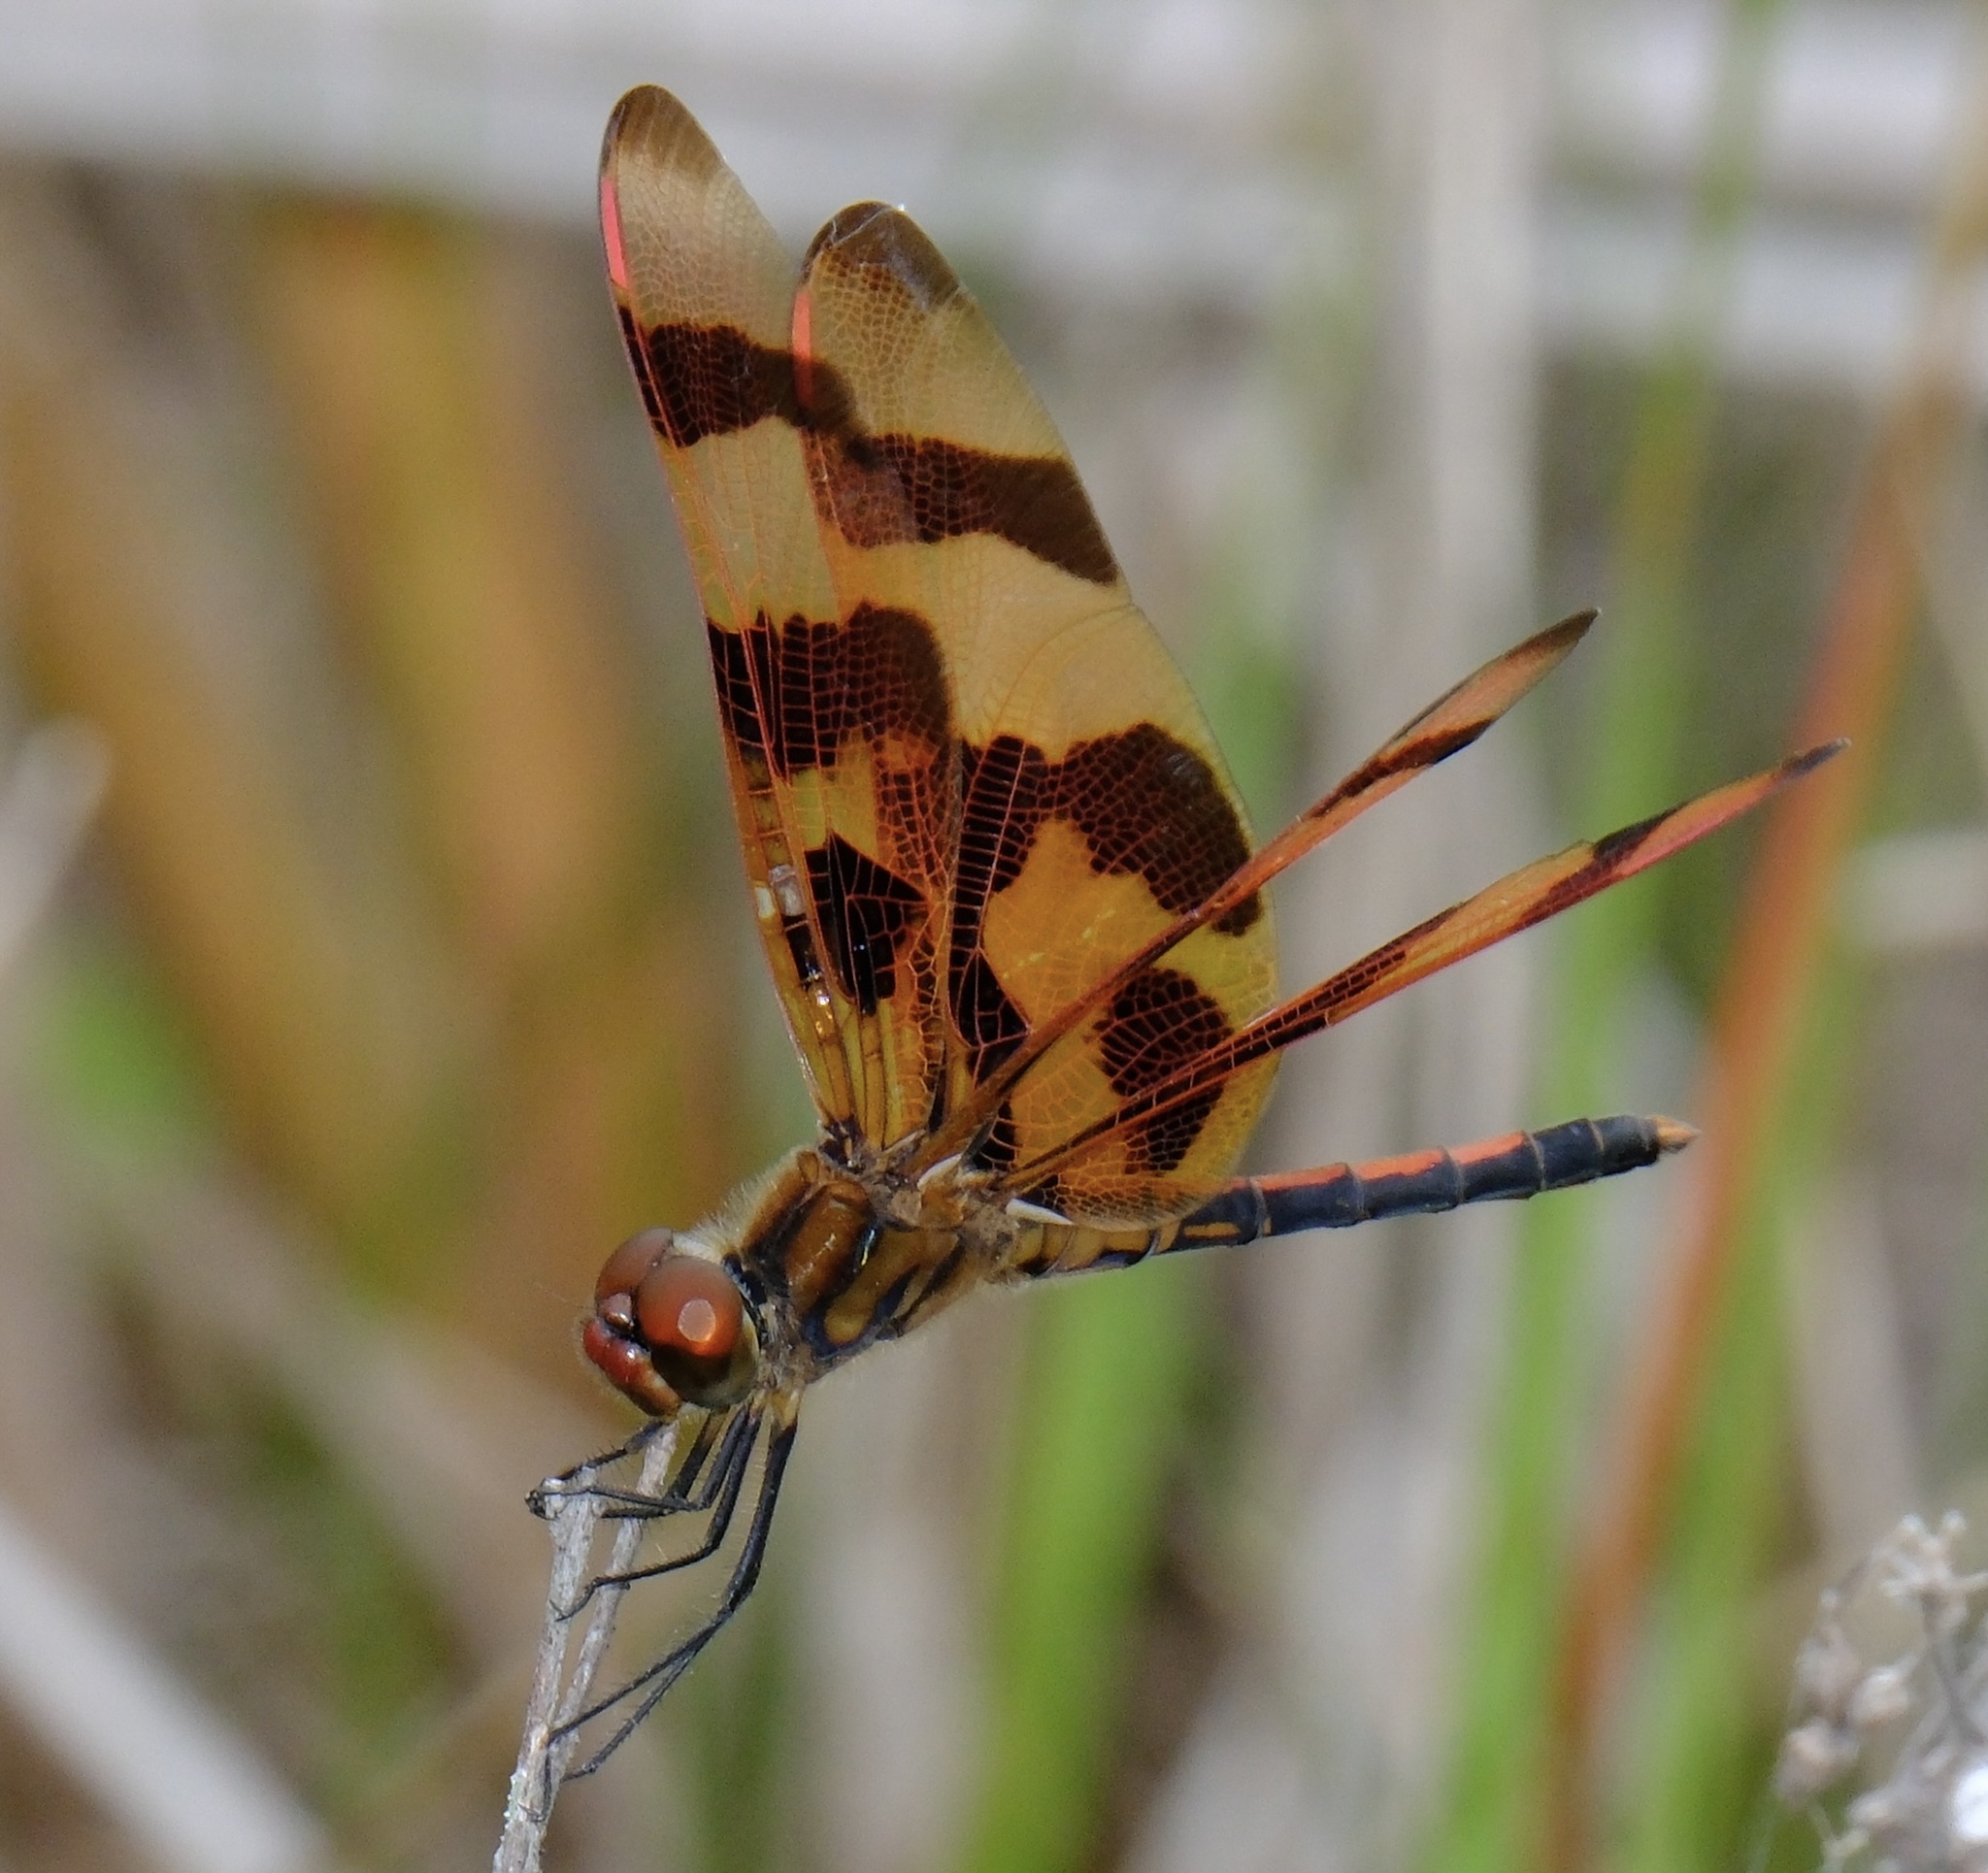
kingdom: Animalia
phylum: Arthropoda
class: Insecta
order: Odonata
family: Libellulidae
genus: Celithemis
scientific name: Celithemis eponina
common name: Halloween pennant
